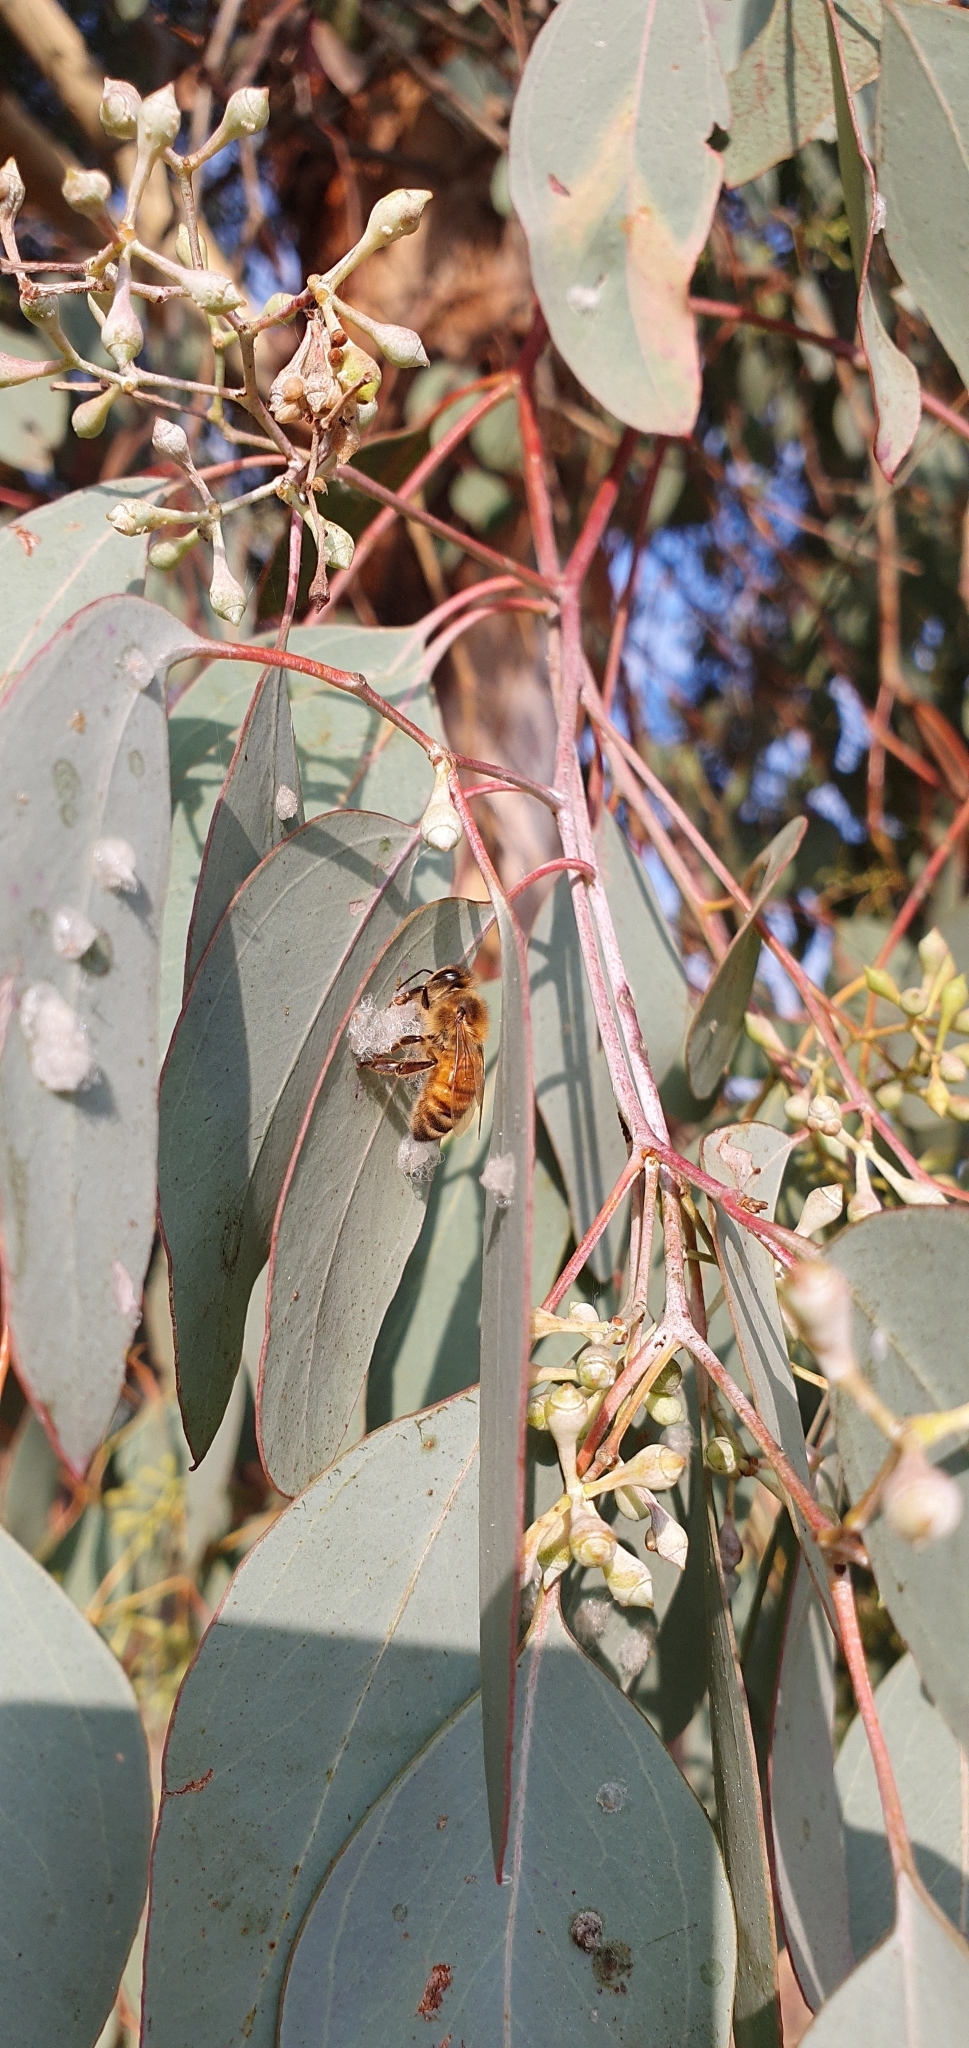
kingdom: Animalia
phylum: Arthropoda
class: Insecta
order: Hymenoptera
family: Apidae
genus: Apis
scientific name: Apis mellifera
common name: Honey bee
